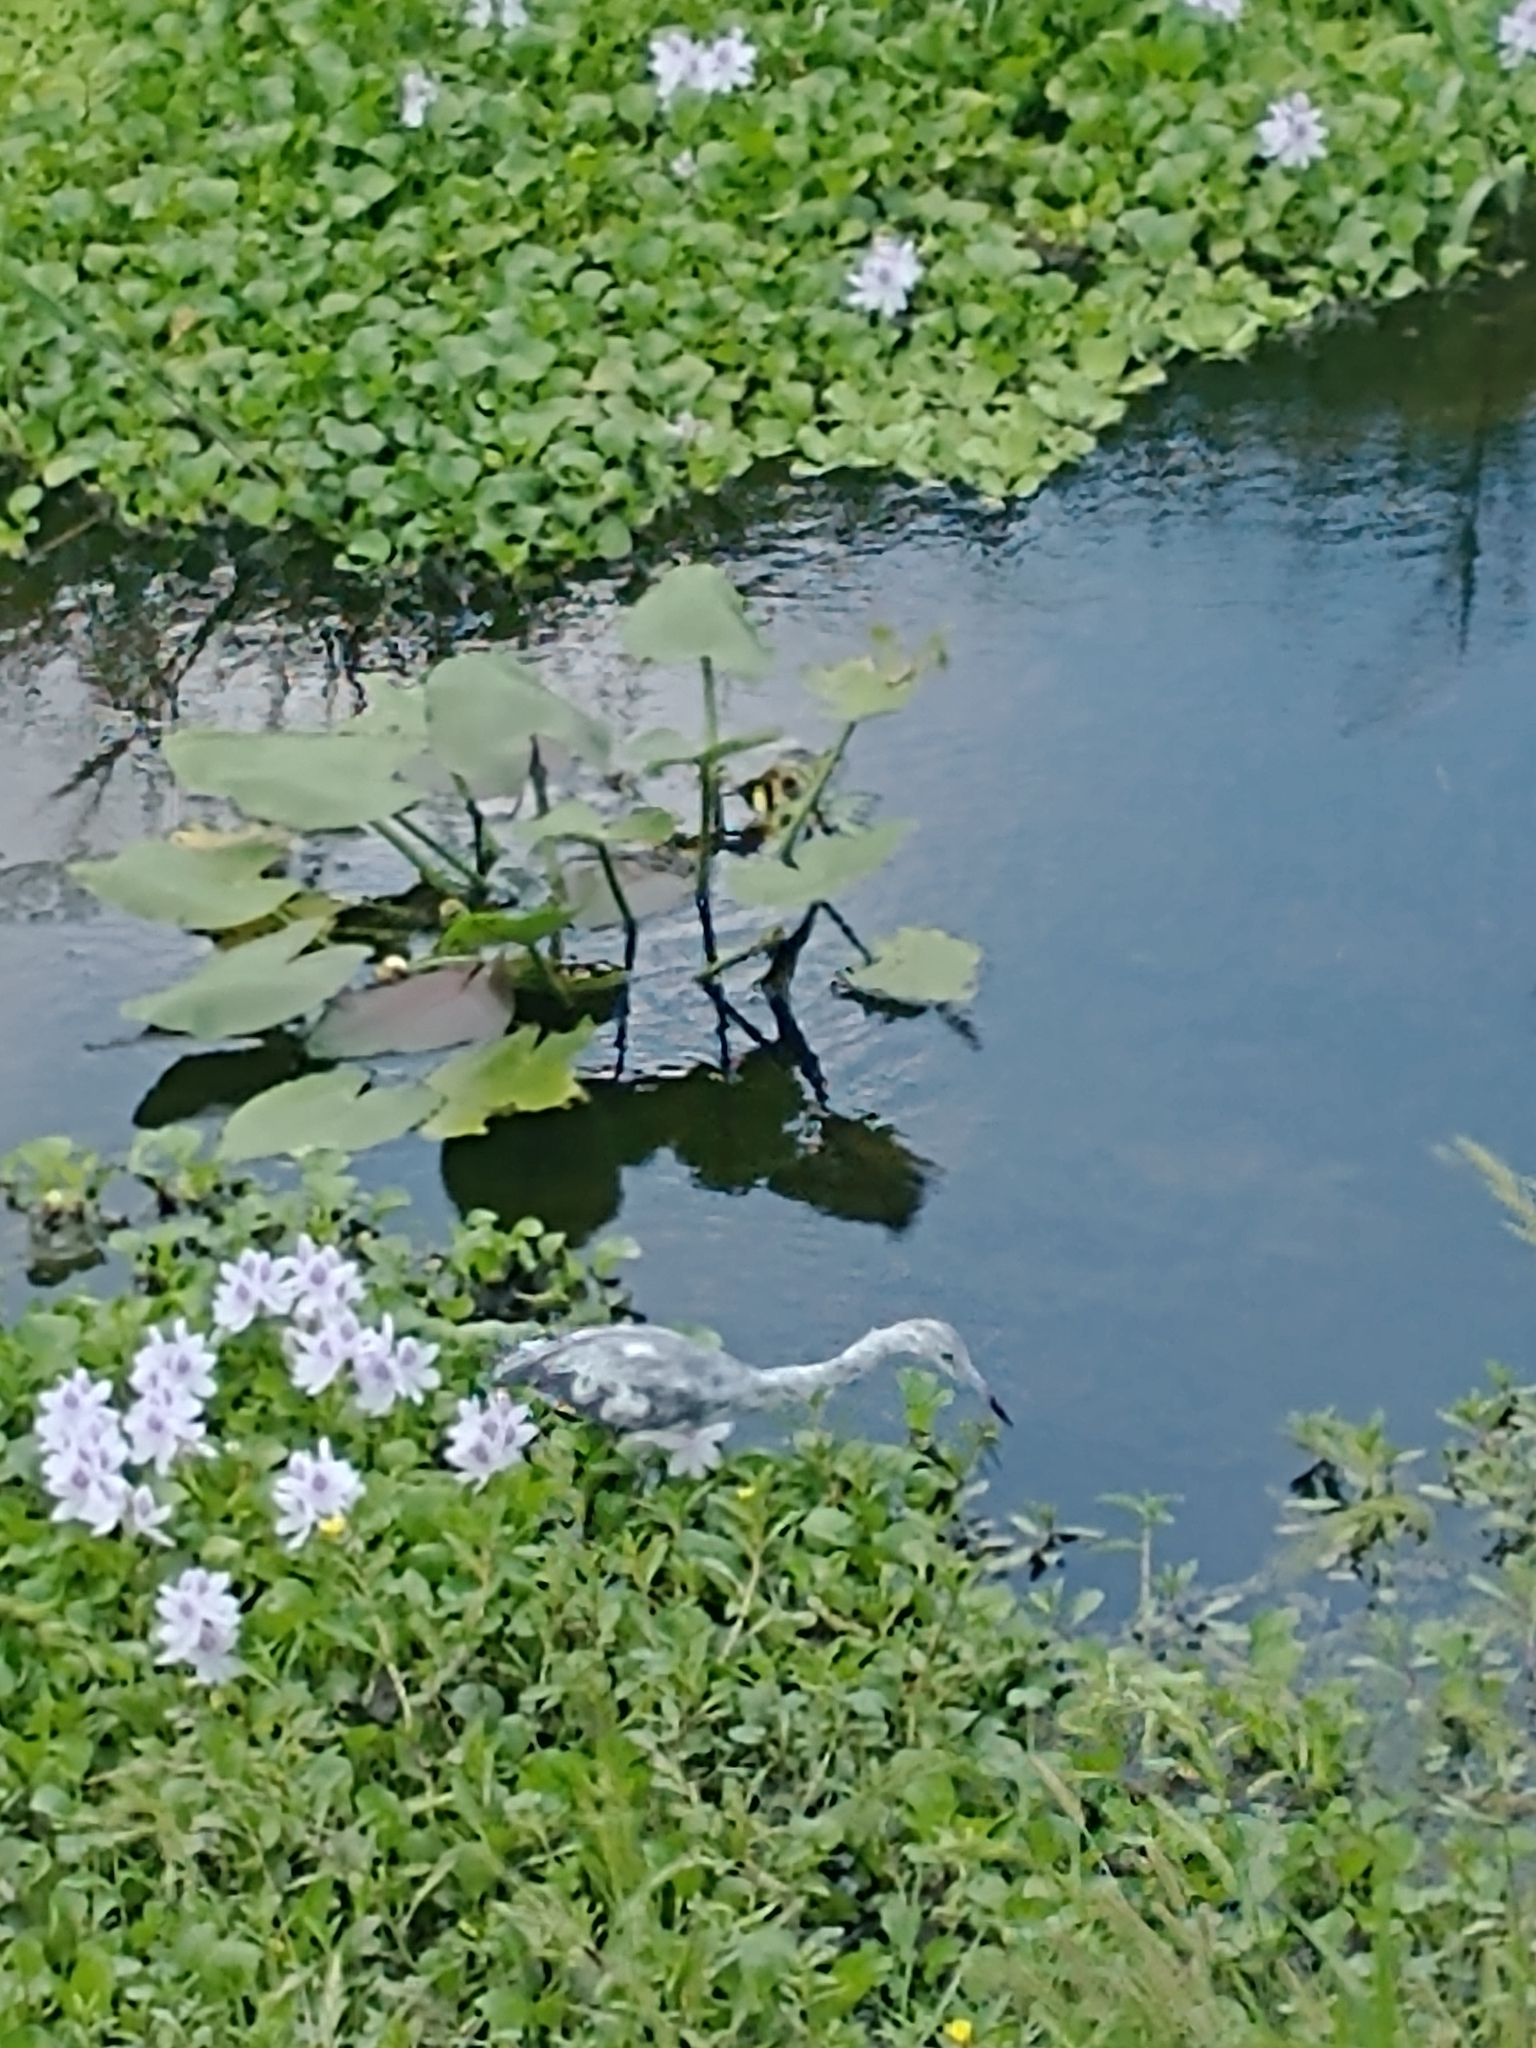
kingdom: Animalia
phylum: Chordata
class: Aves
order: Pelecaniformes
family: Ardeidae
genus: Egretta
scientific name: Egretta caerulea
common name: Little blue heron
